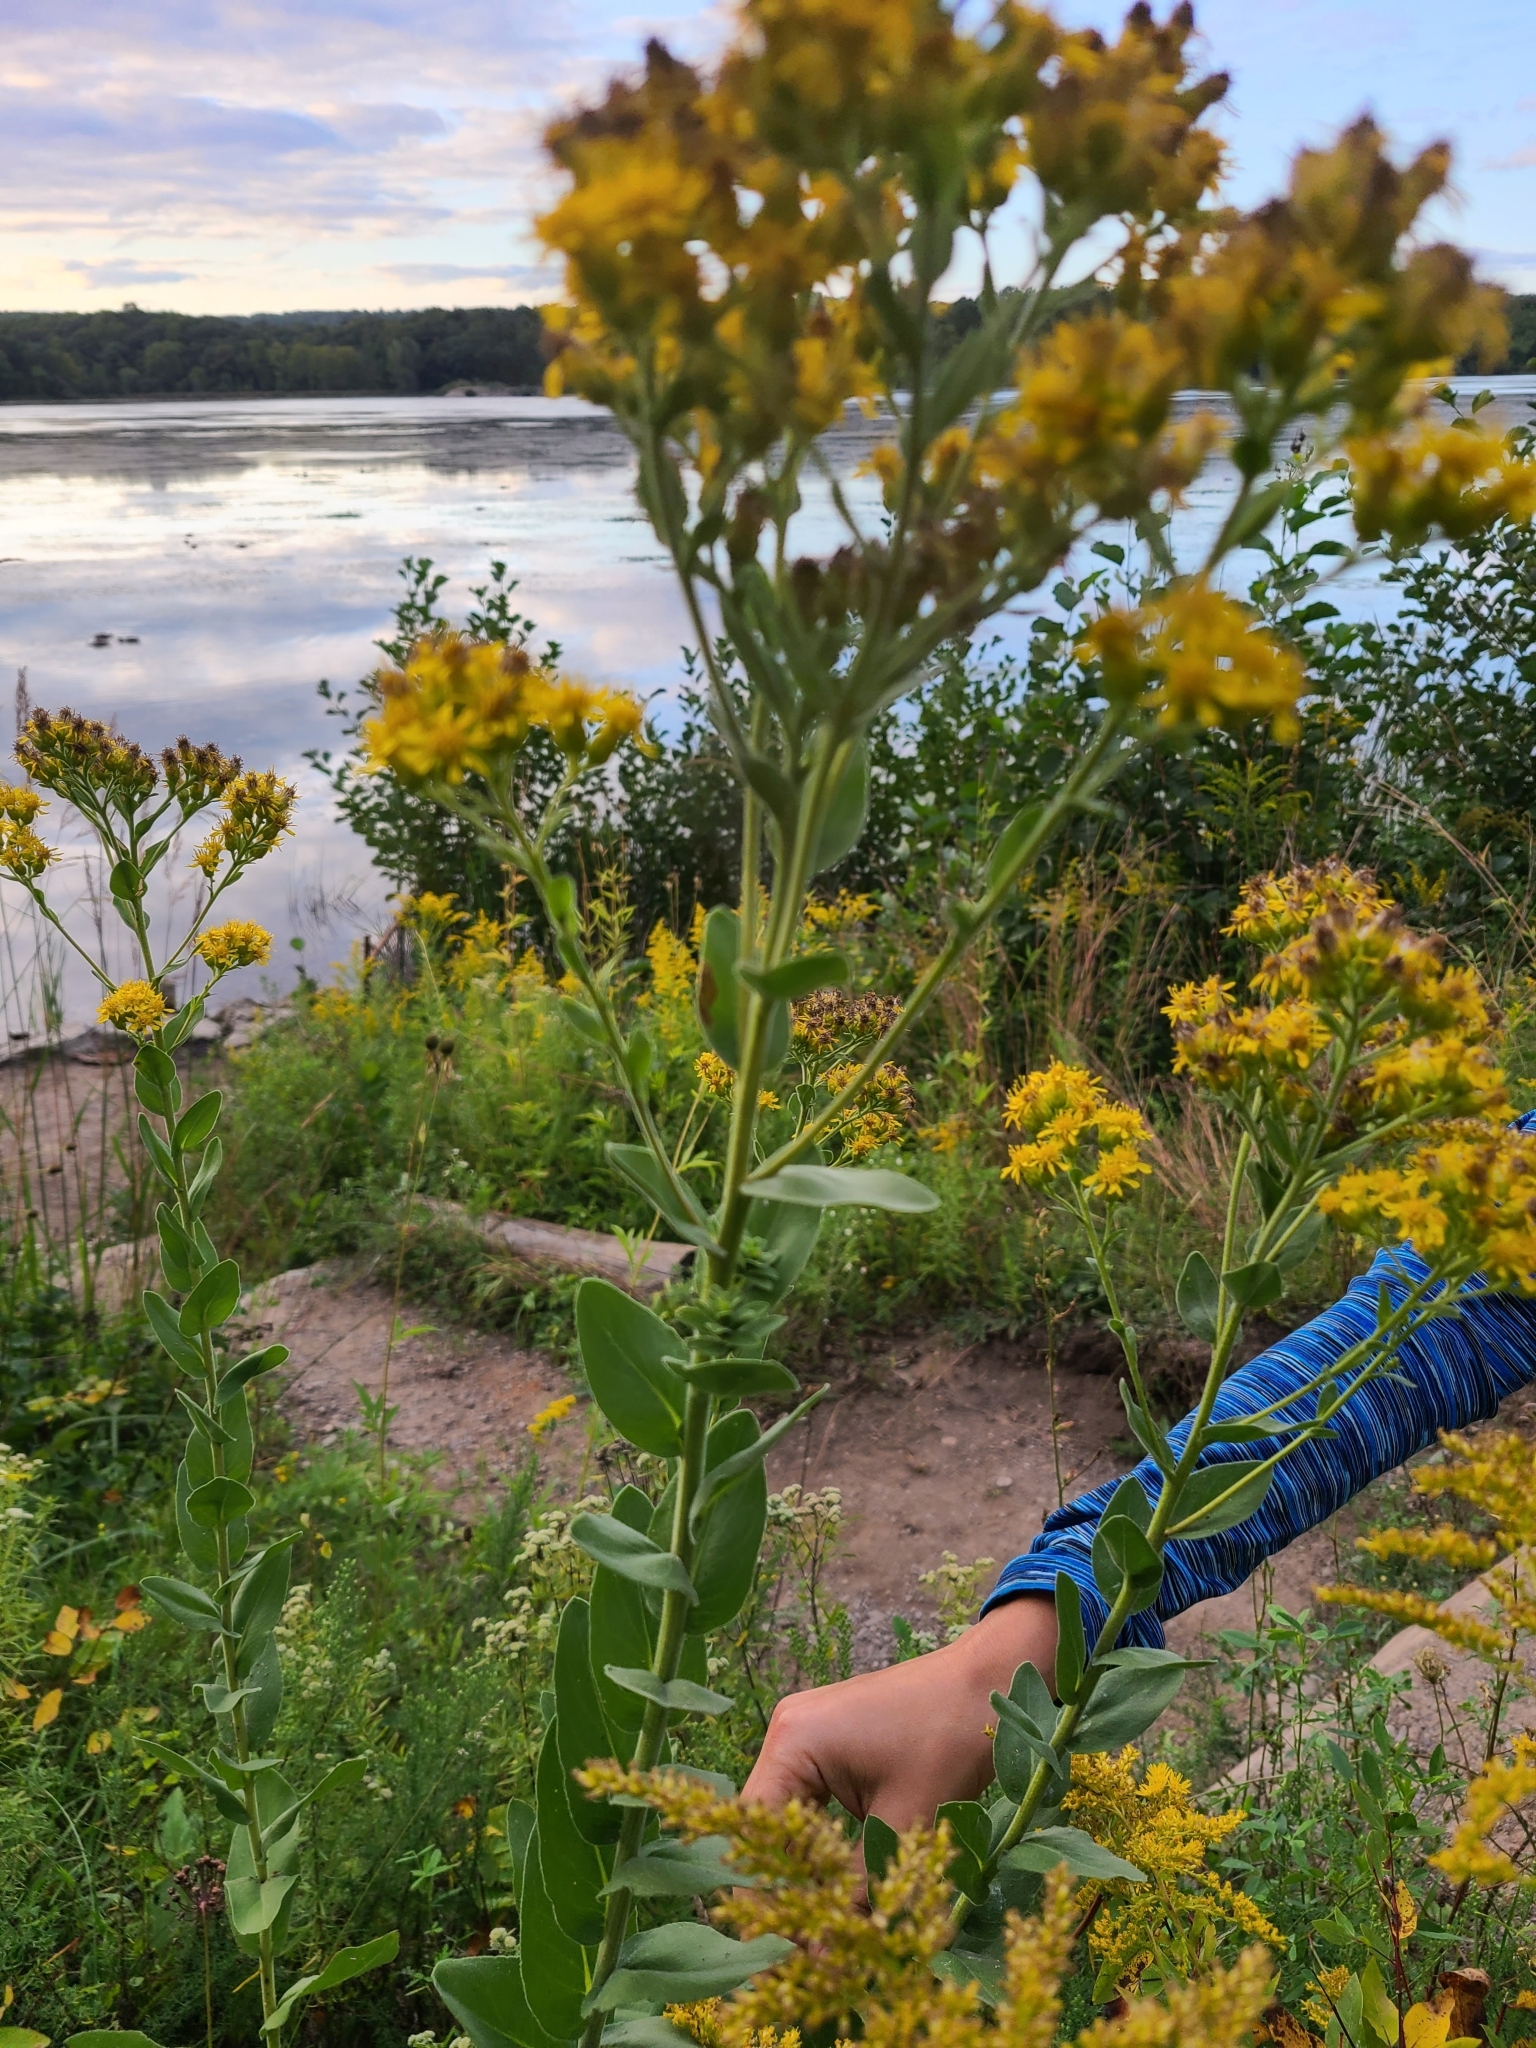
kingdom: Plantae
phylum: Tracheophyta
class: Magnoliopsida
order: Asterales
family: Asteraceae
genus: Solidago
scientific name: Solidago rigida
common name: Rigid goldenrod
